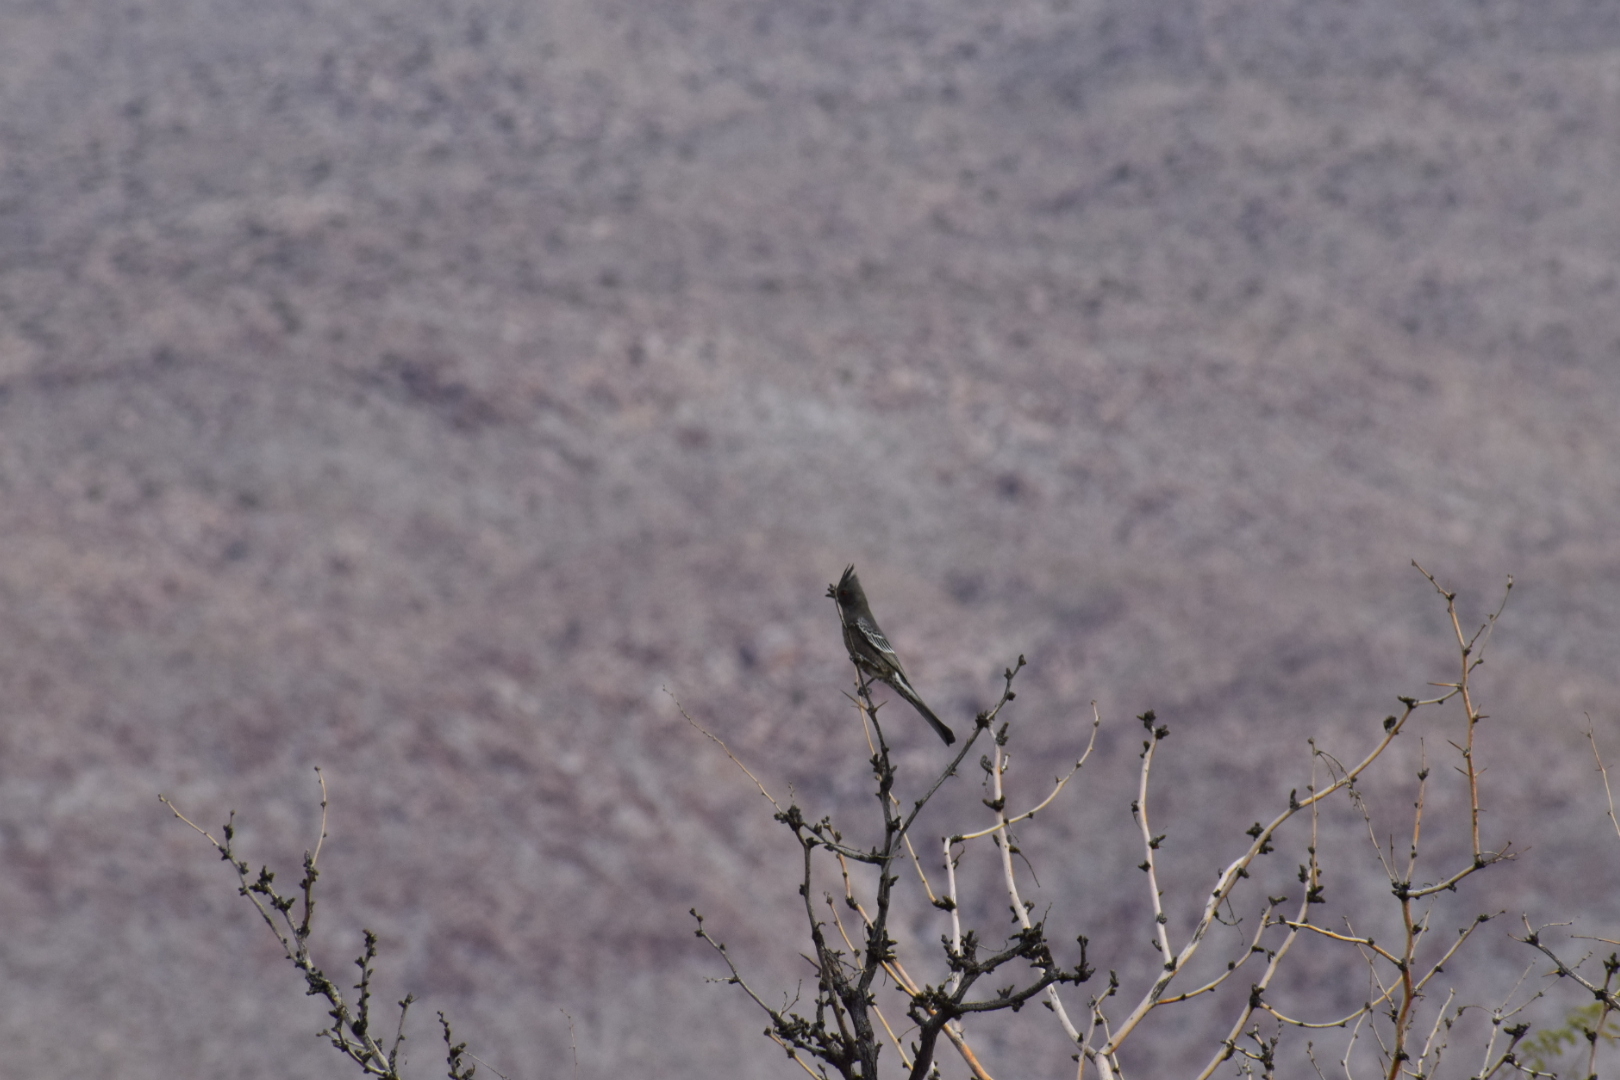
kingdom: Animalia
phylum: Chordata
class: Aves
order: Passeriformes
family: Ptilogonatidae
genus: Phainopepla
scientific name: Phainopepla nitens
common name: Phainopepla
